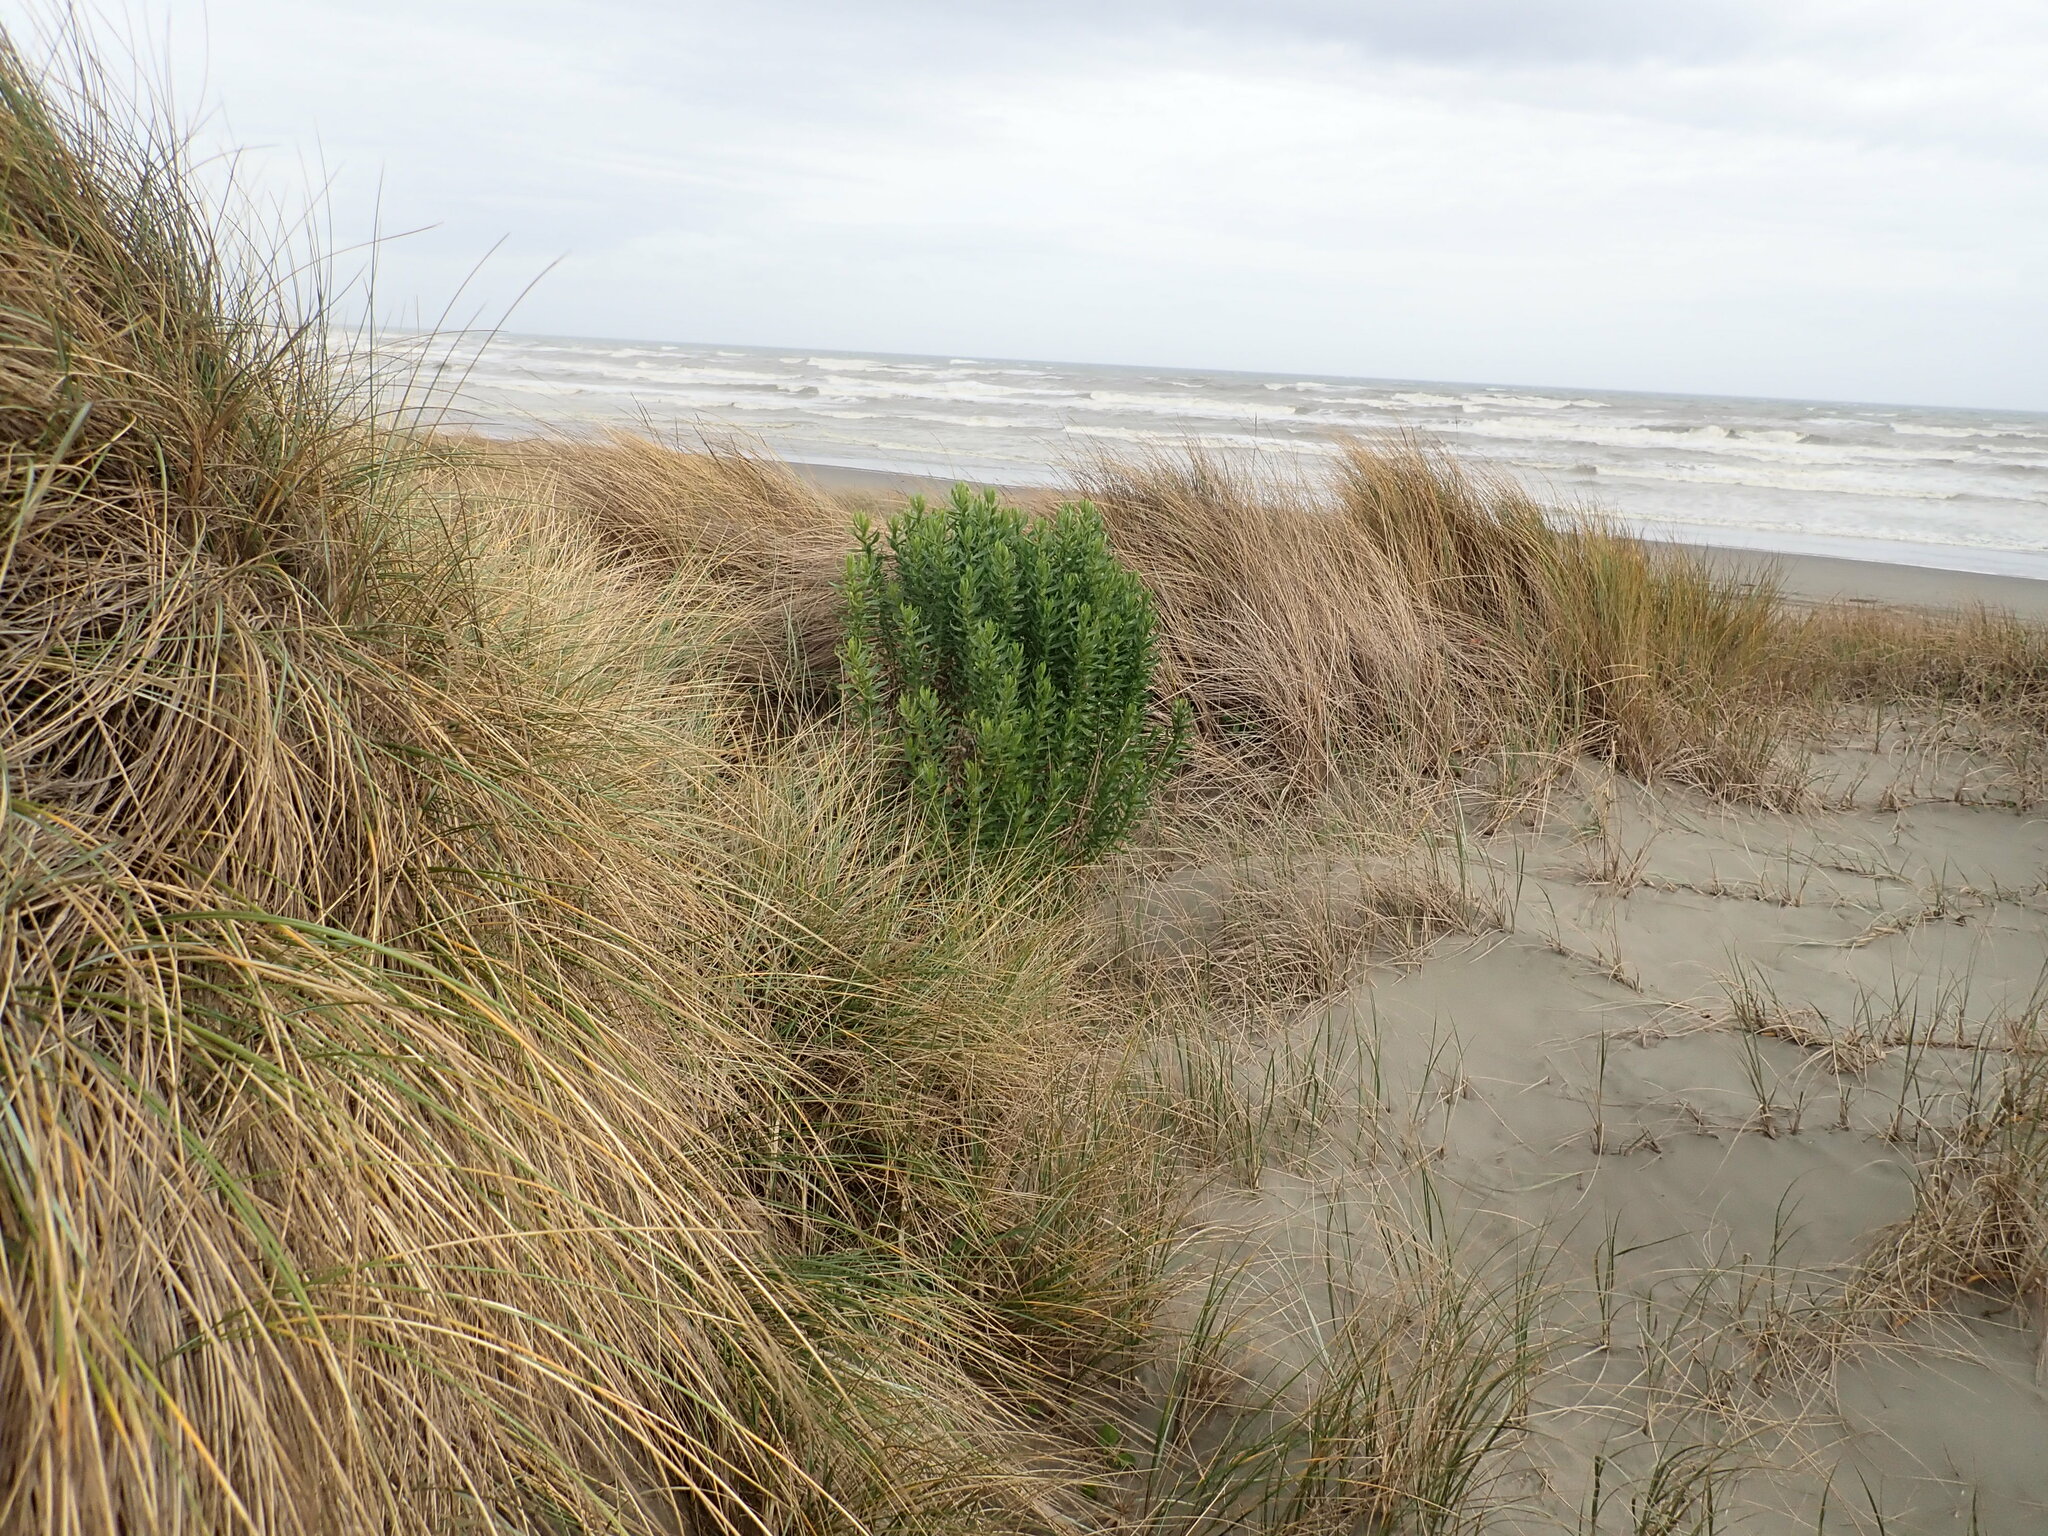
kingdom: Plantae
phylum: Tracheophyta
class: Magnoliopsida
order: Asterales
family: Asteraceae
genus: Senecio
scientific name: Senecio glastifolius
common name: Woad-leaved ragwort
